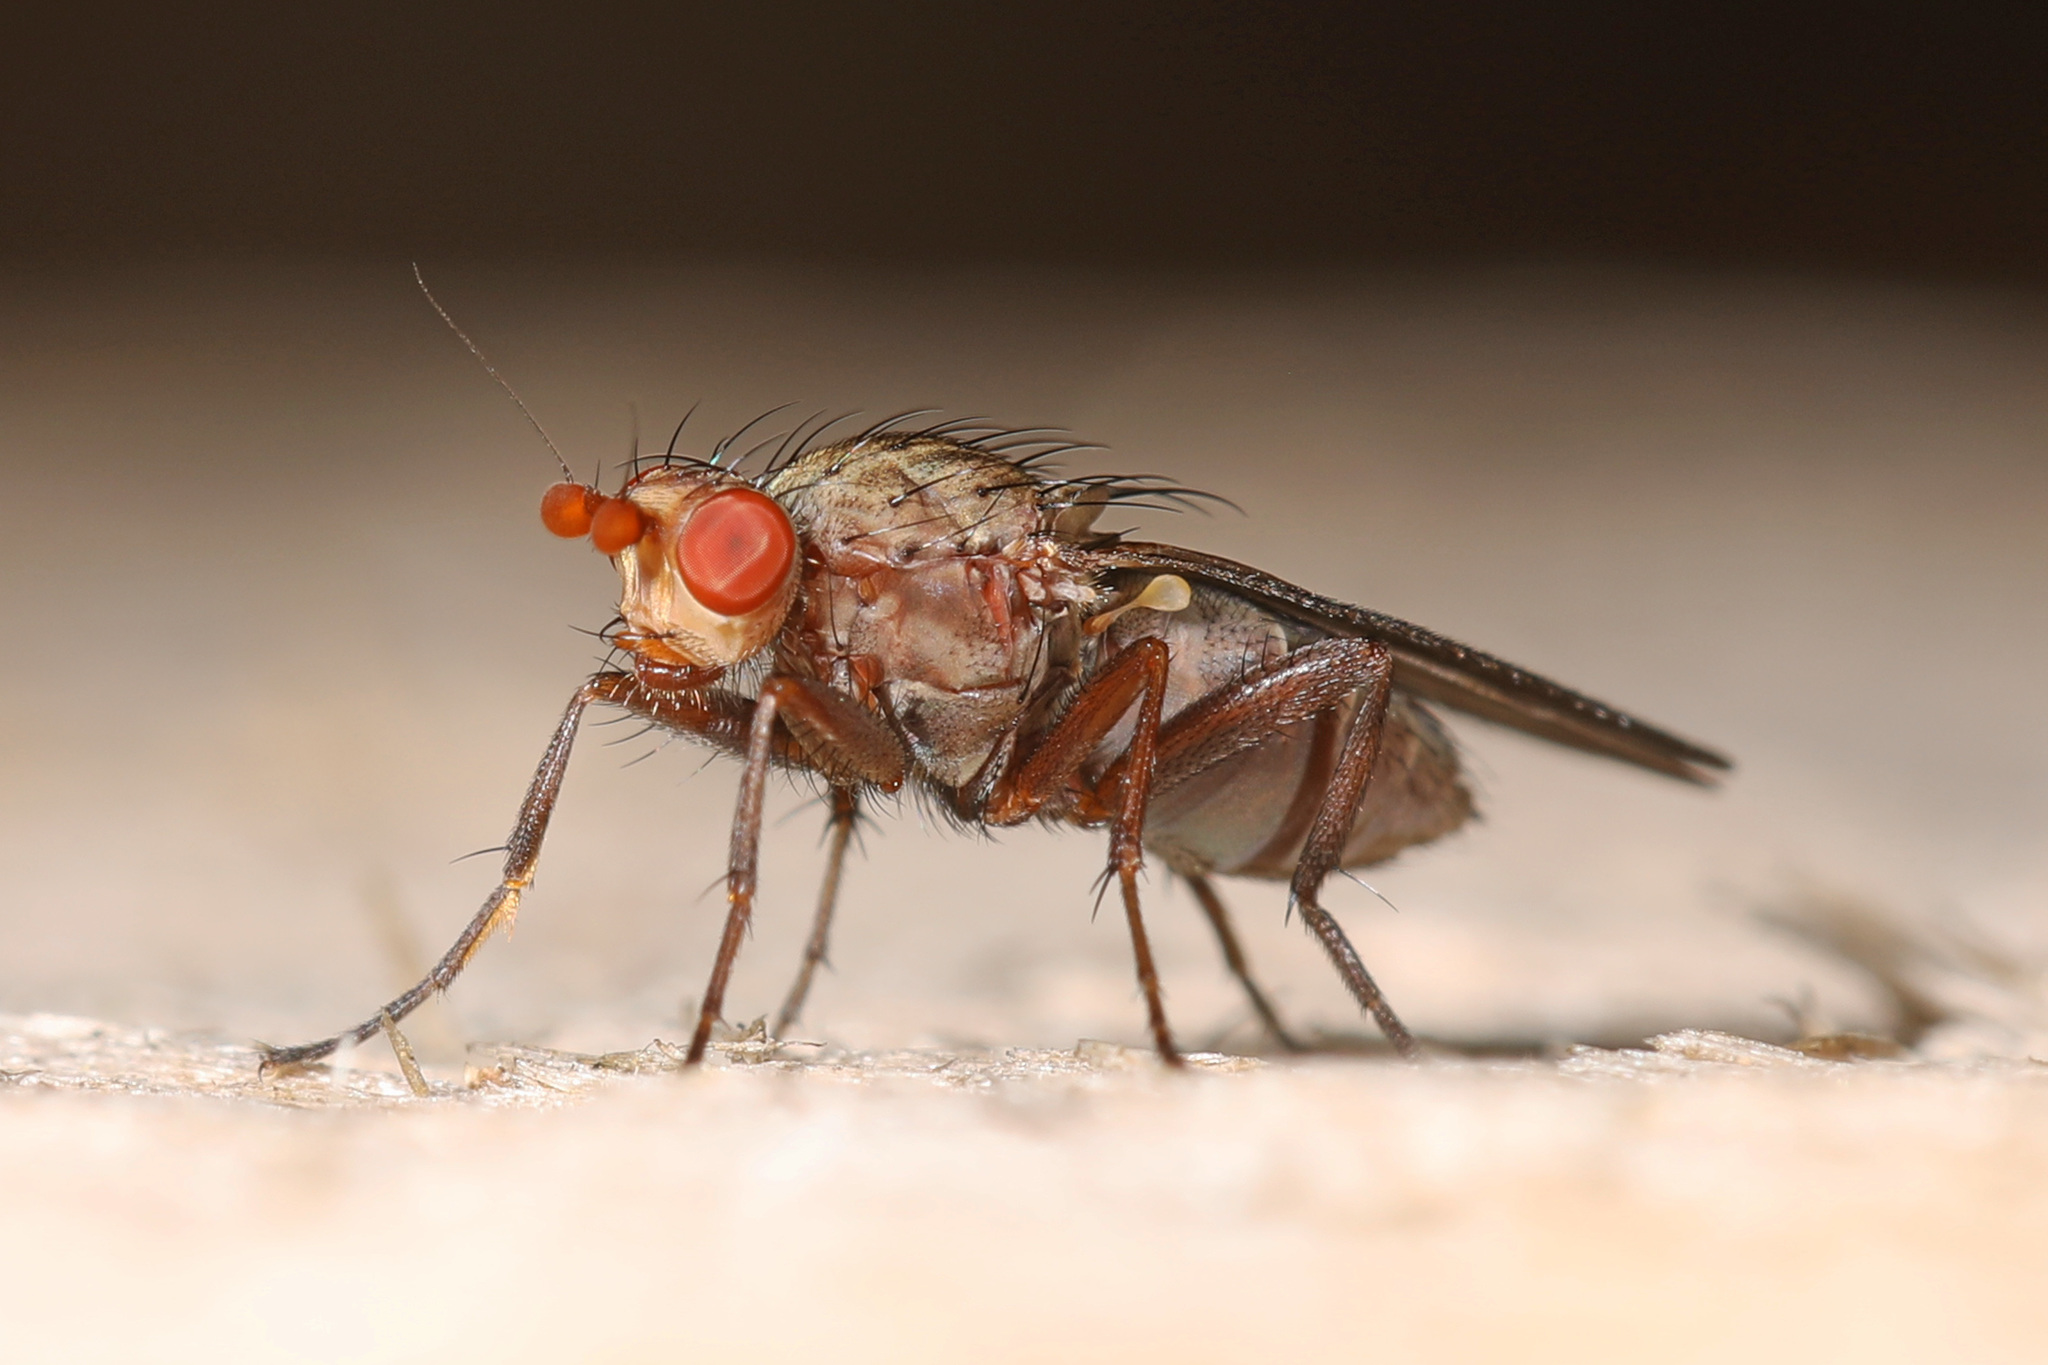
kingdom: Animalia
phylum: Arthropoda
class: Insecta
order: Diptera
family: Heleomyzidae
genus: Amoebaleria
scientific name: Amoebaleria defessa
